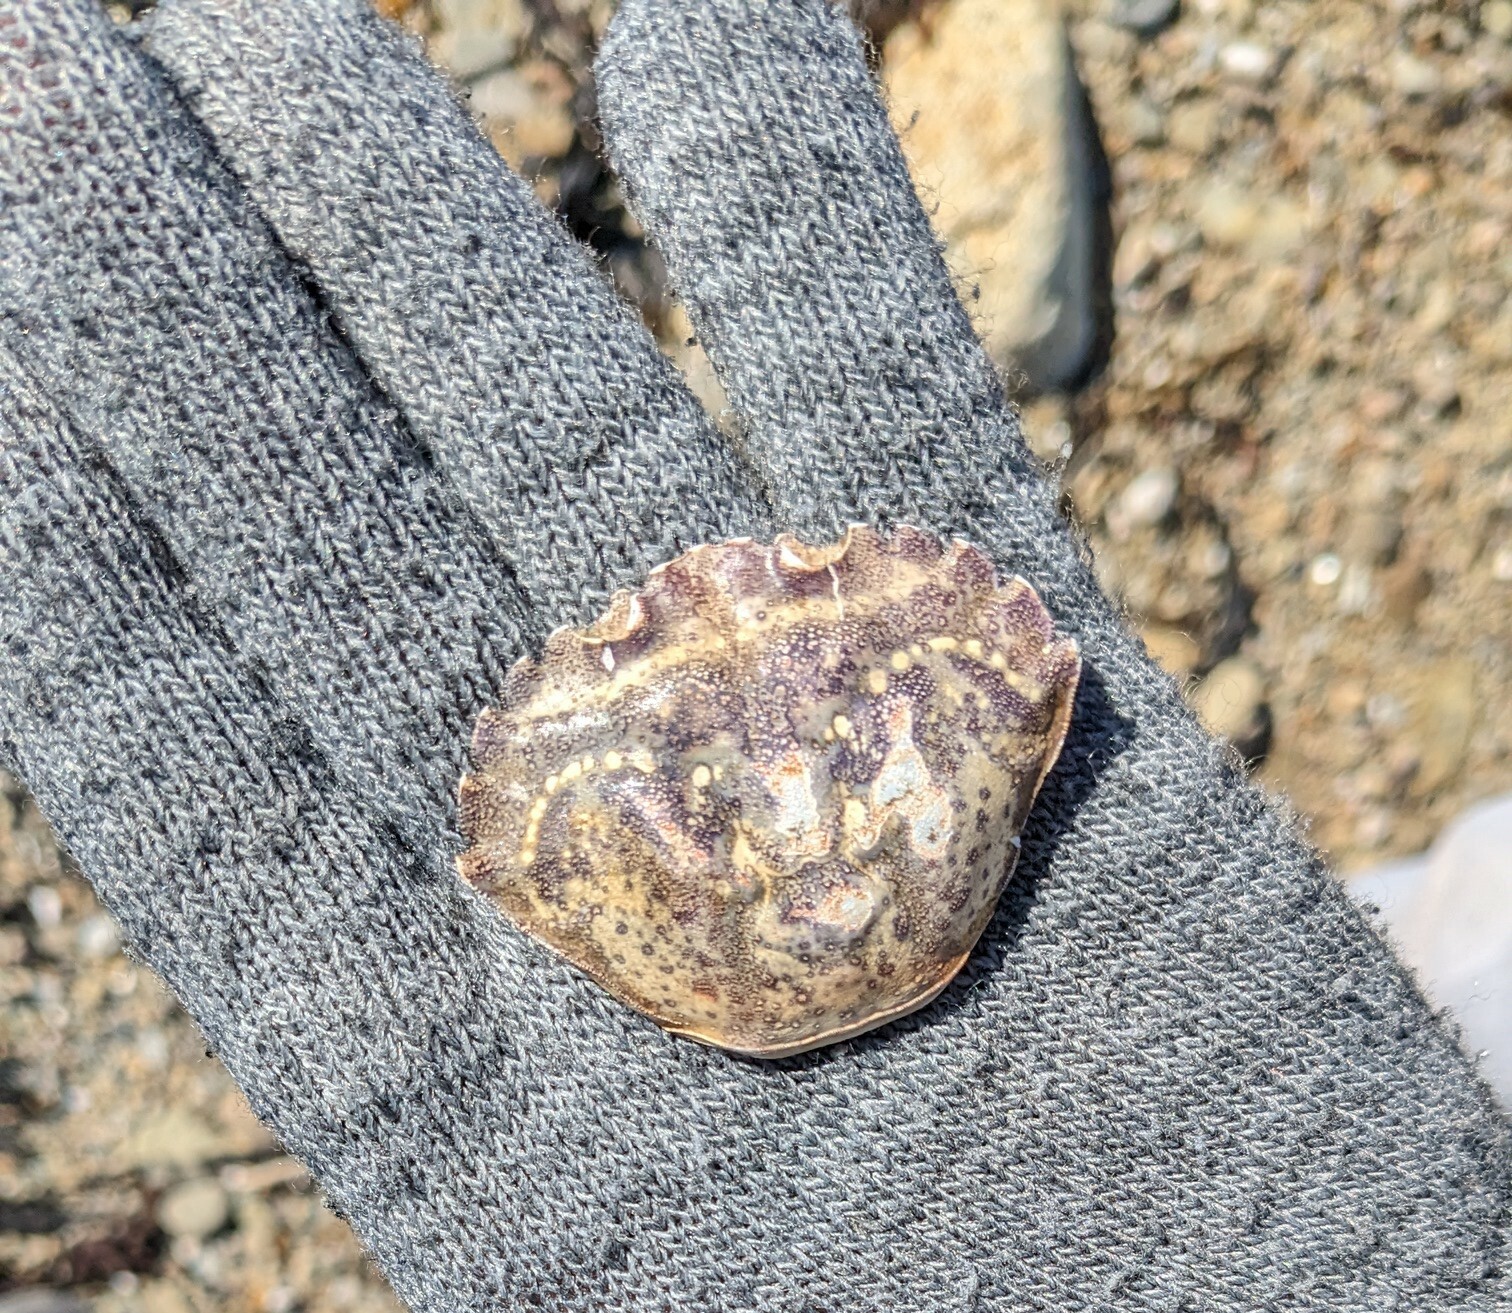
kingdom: Animalia
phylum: Arthropoda
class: Malacostraca
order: Decapoda
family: Carcinidae
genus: Carcinus
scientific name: Carcinus maenas
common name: European green crab
